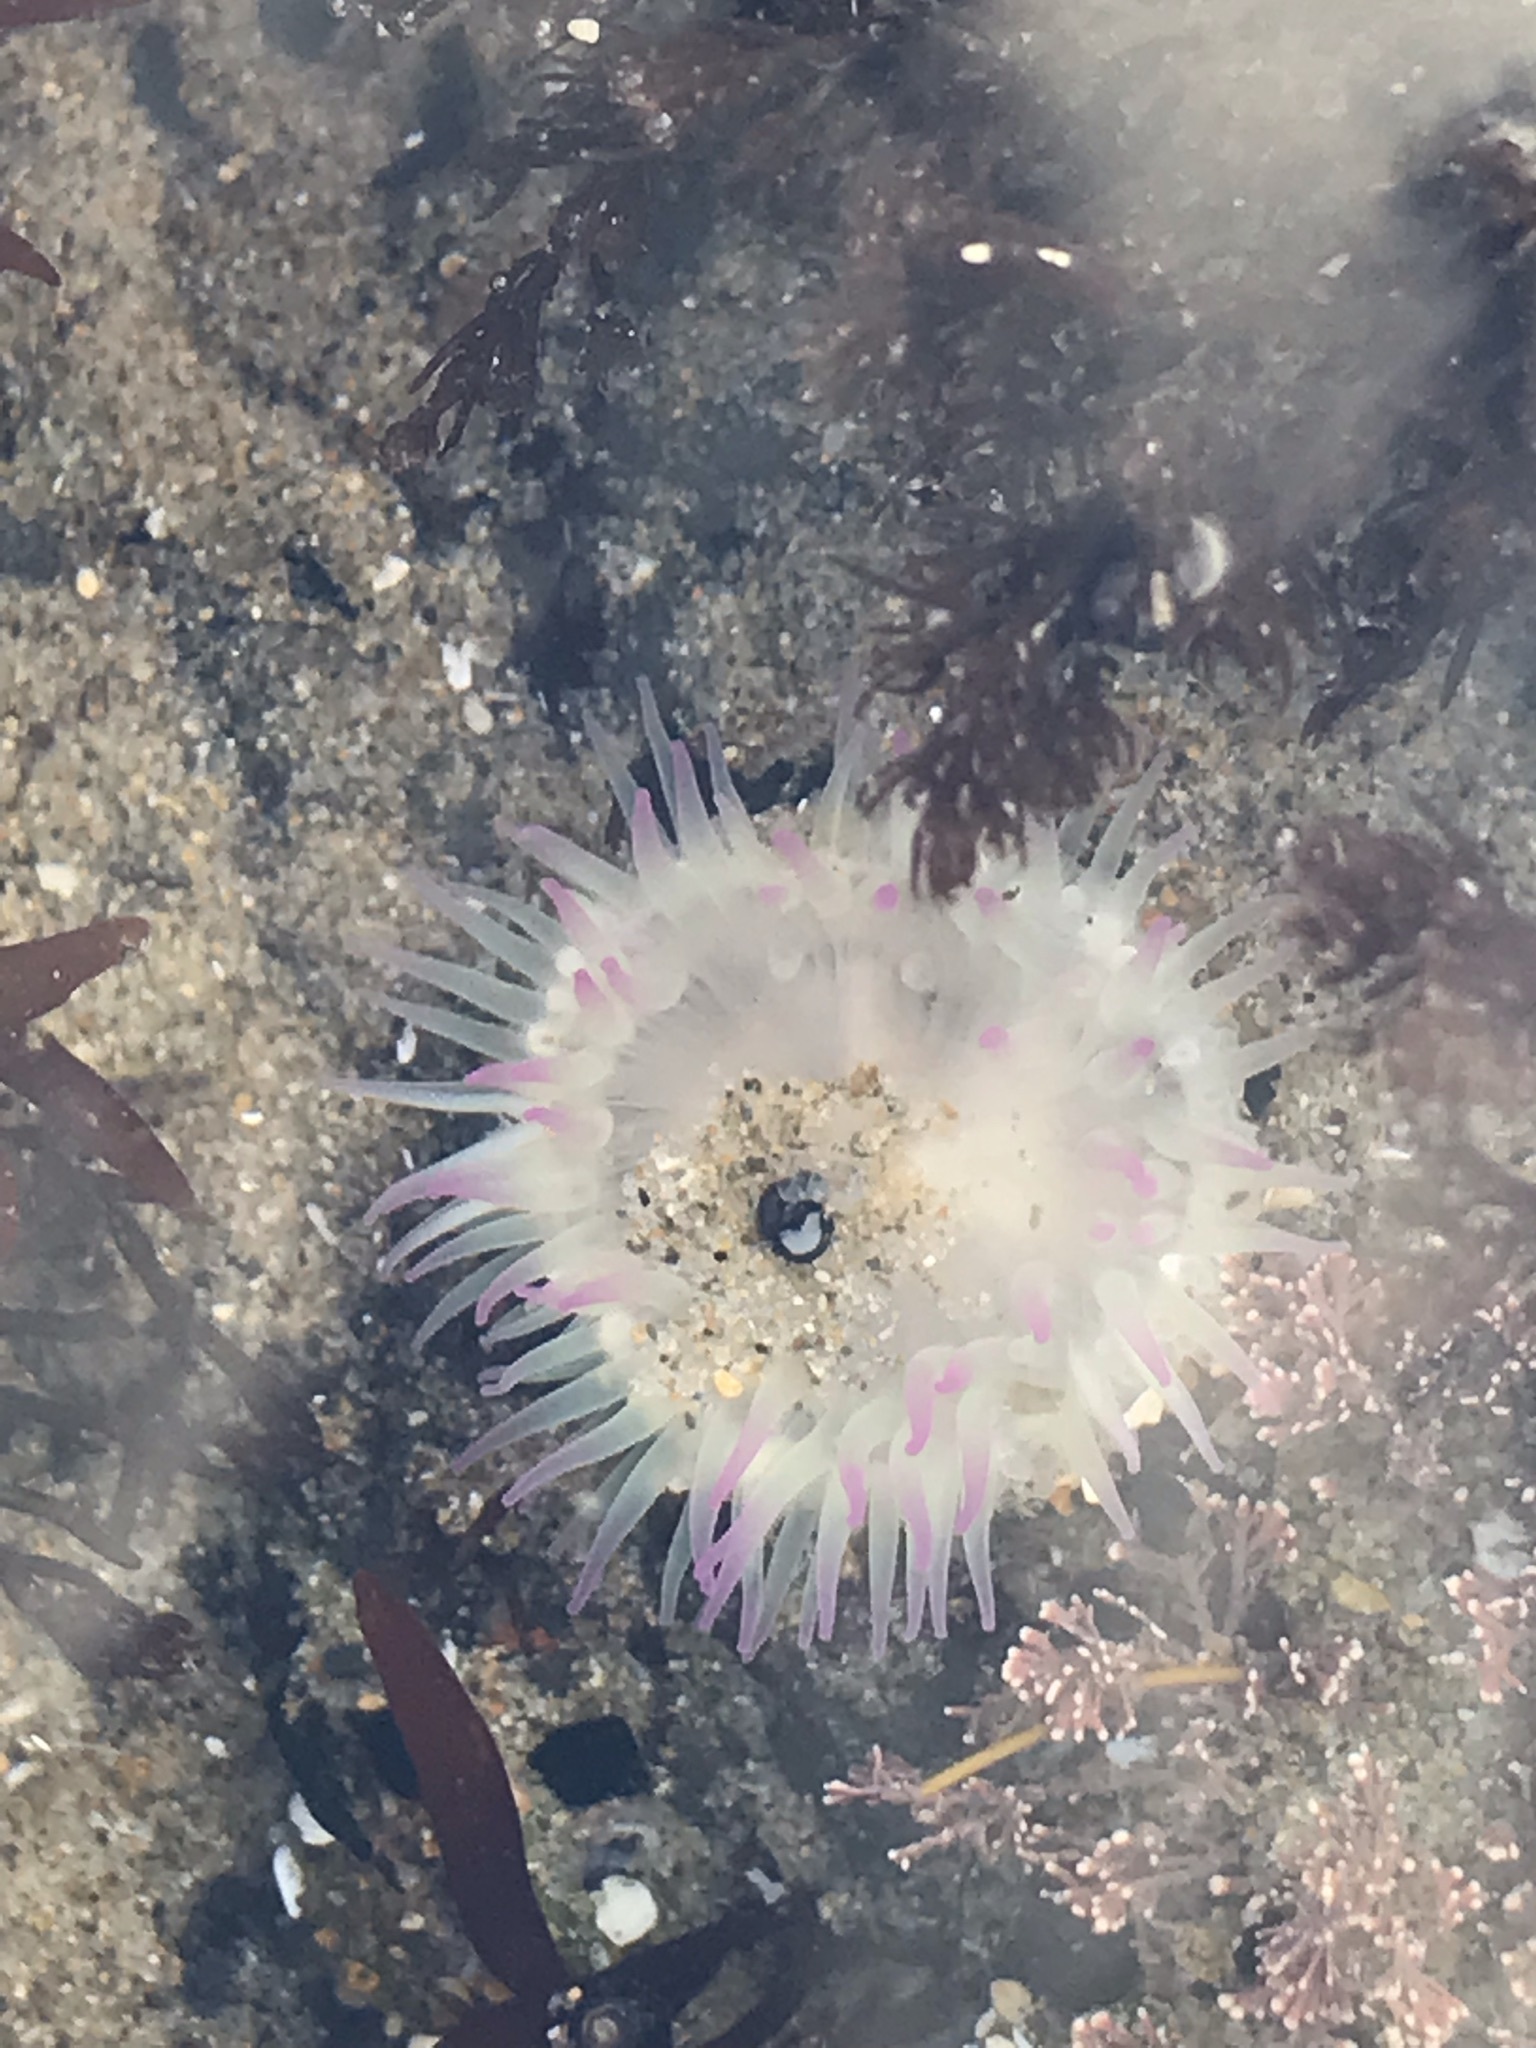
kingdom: Animalia
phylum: Cnidaria
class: Anthozoa
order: Actiniaria
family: Actiniidae
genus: Anthopleura
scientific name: Anthopleura elegantissima
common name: Clonal anemone
